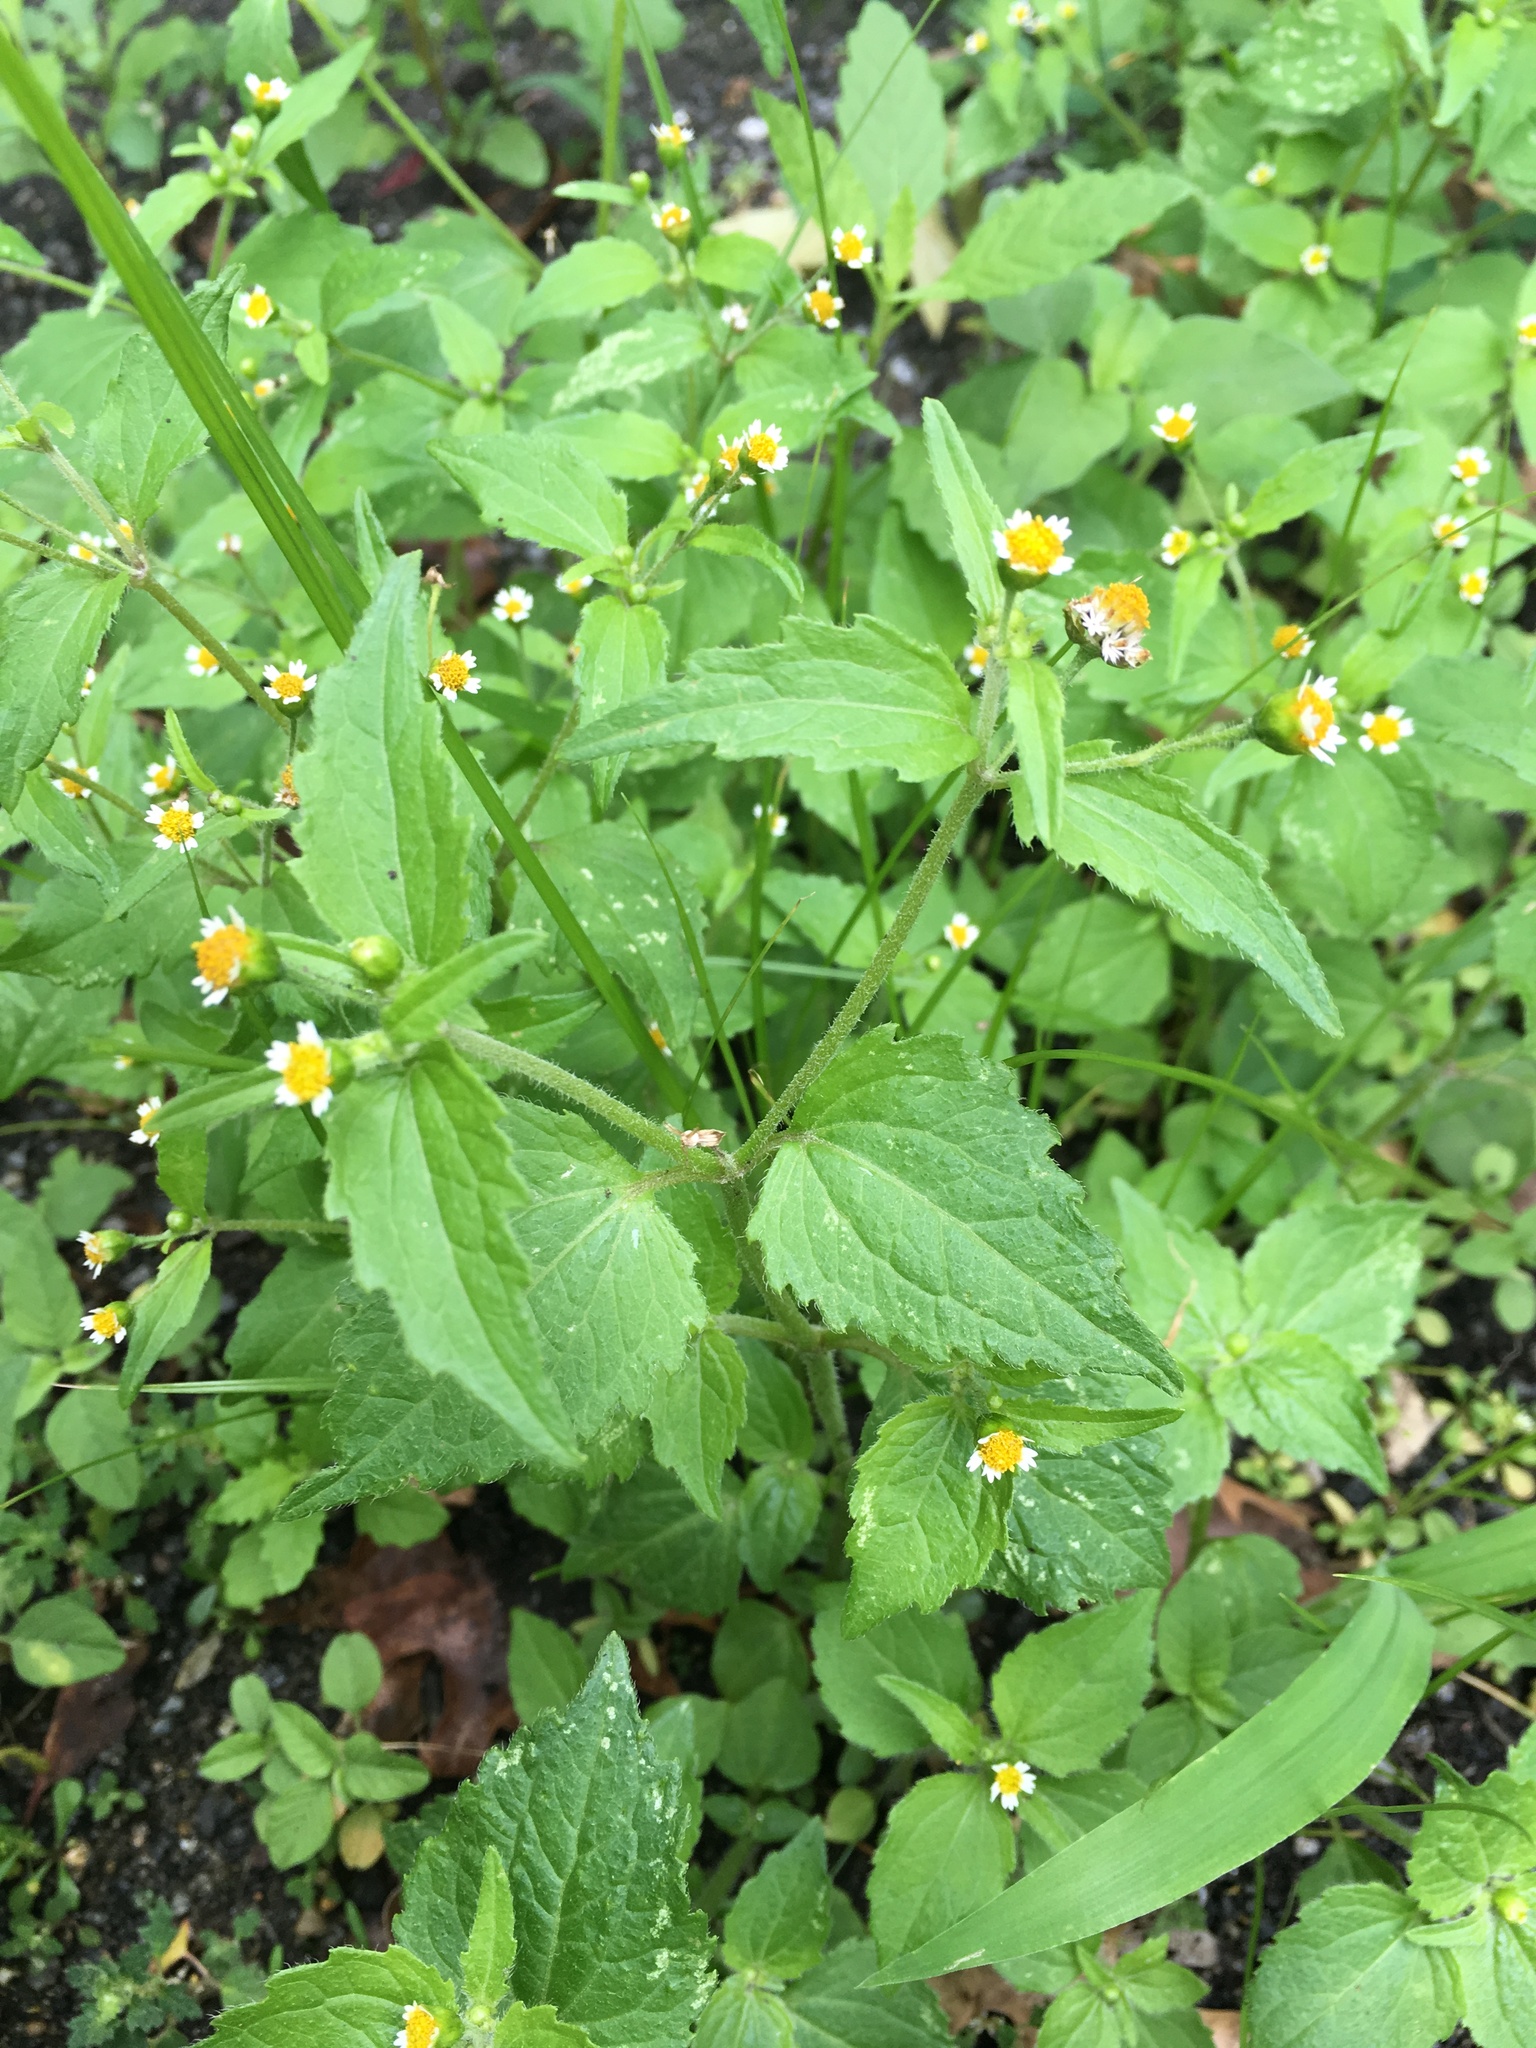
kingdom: Plantae
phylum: Tracheophyta
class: Magnoliopsida
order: Asterales
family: Asteraceae
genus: Galinsoga
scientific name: Galinsoga quadriradiata
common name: Shaggy soldier
